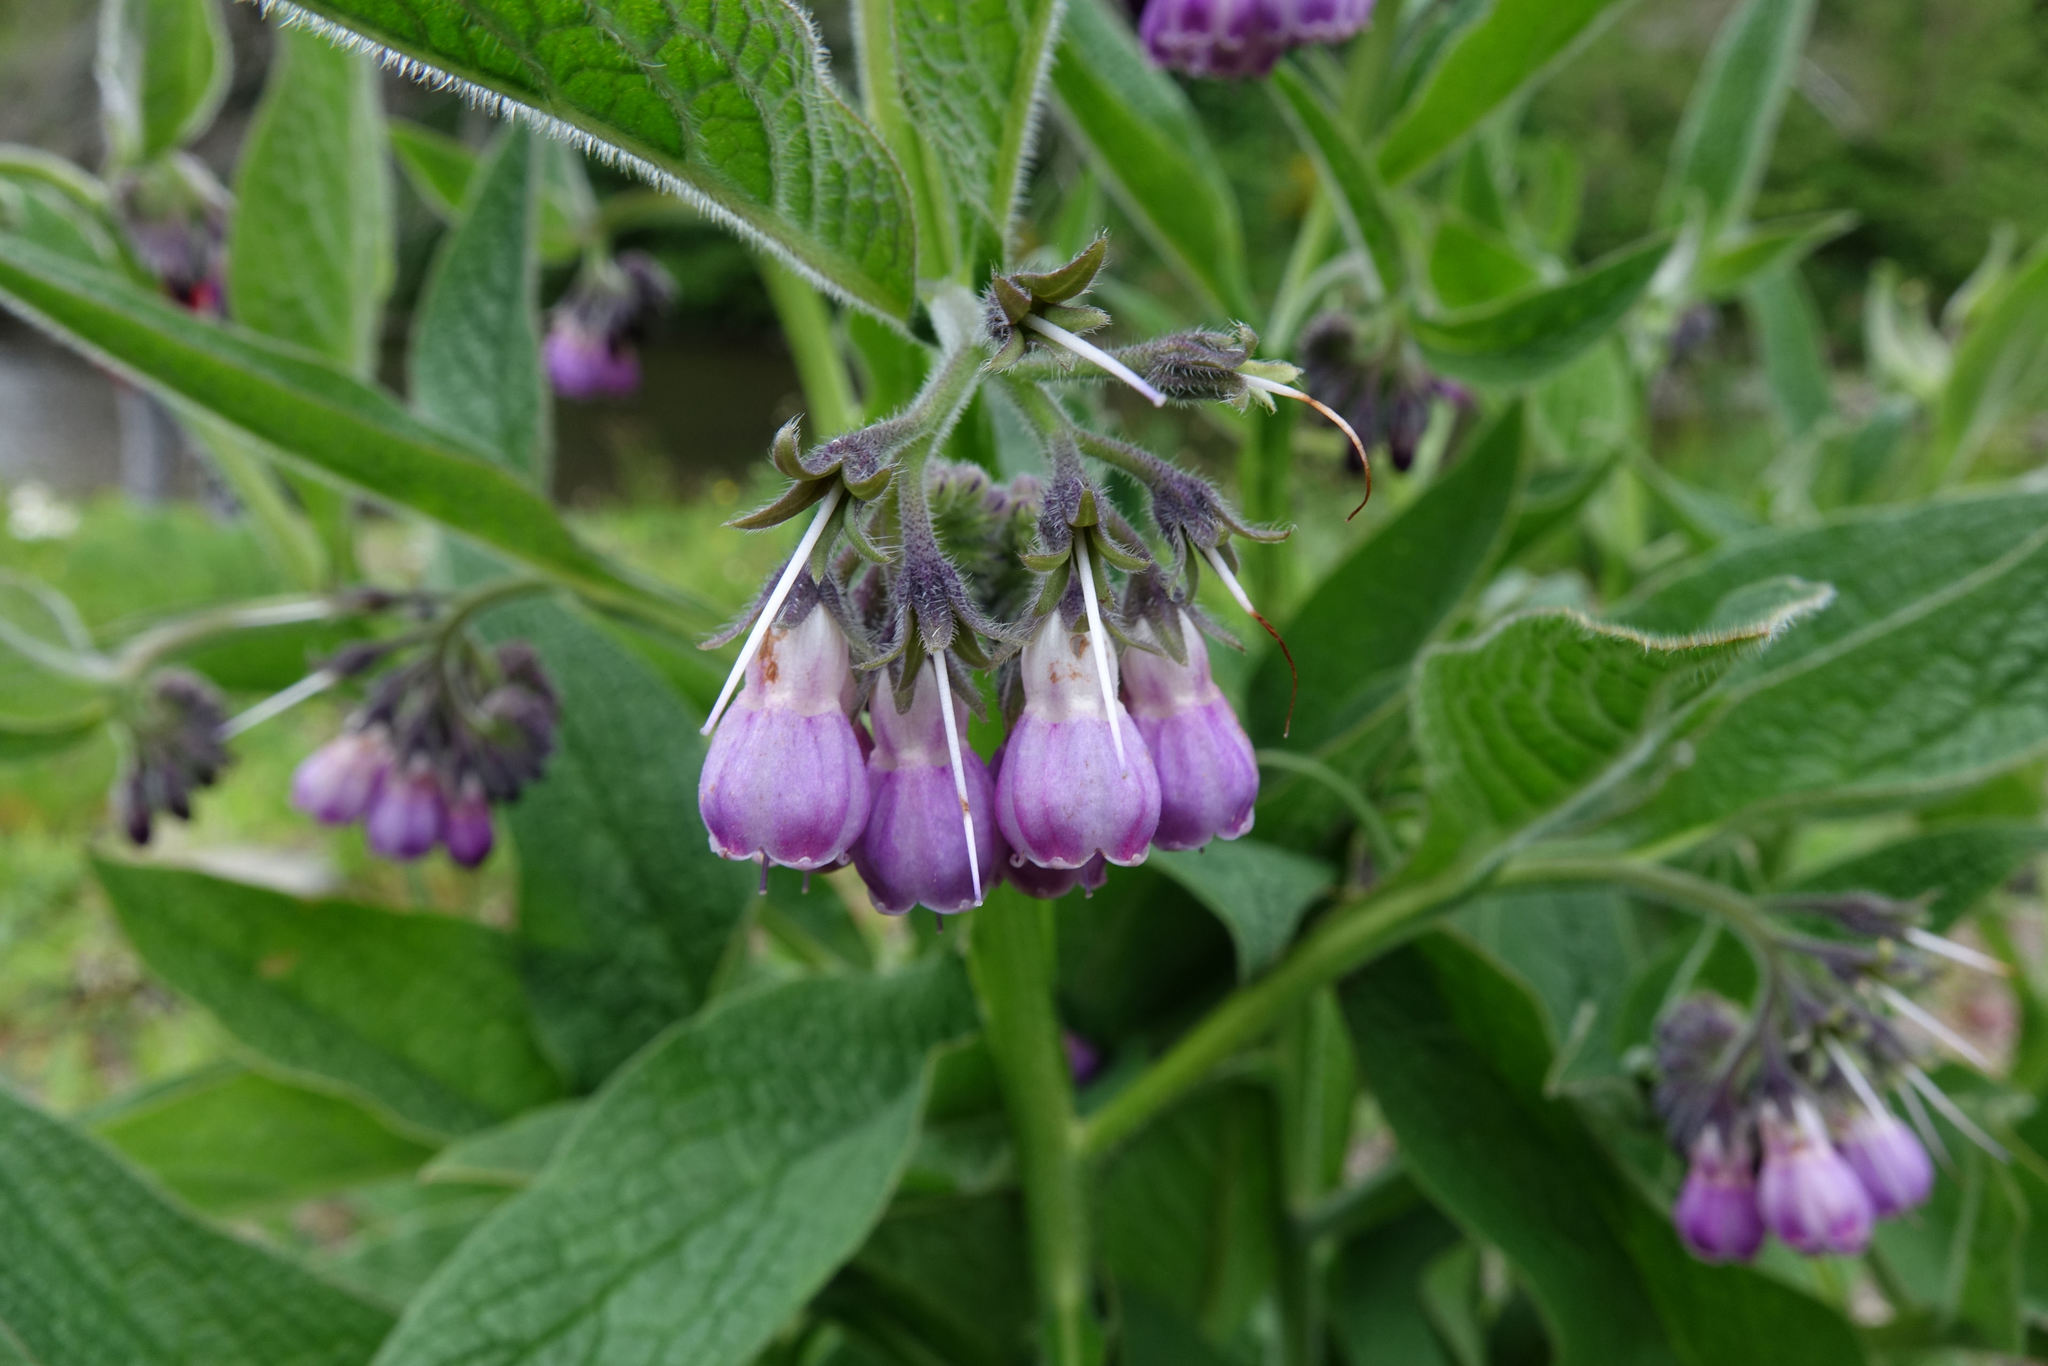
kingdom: Plantae
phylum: Tracheophyta
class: Magnoliopsida
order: Boraginales
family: Boraginaceae
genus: Symphytum
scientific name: Symphytum uplandicum
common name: Russian comfrey
